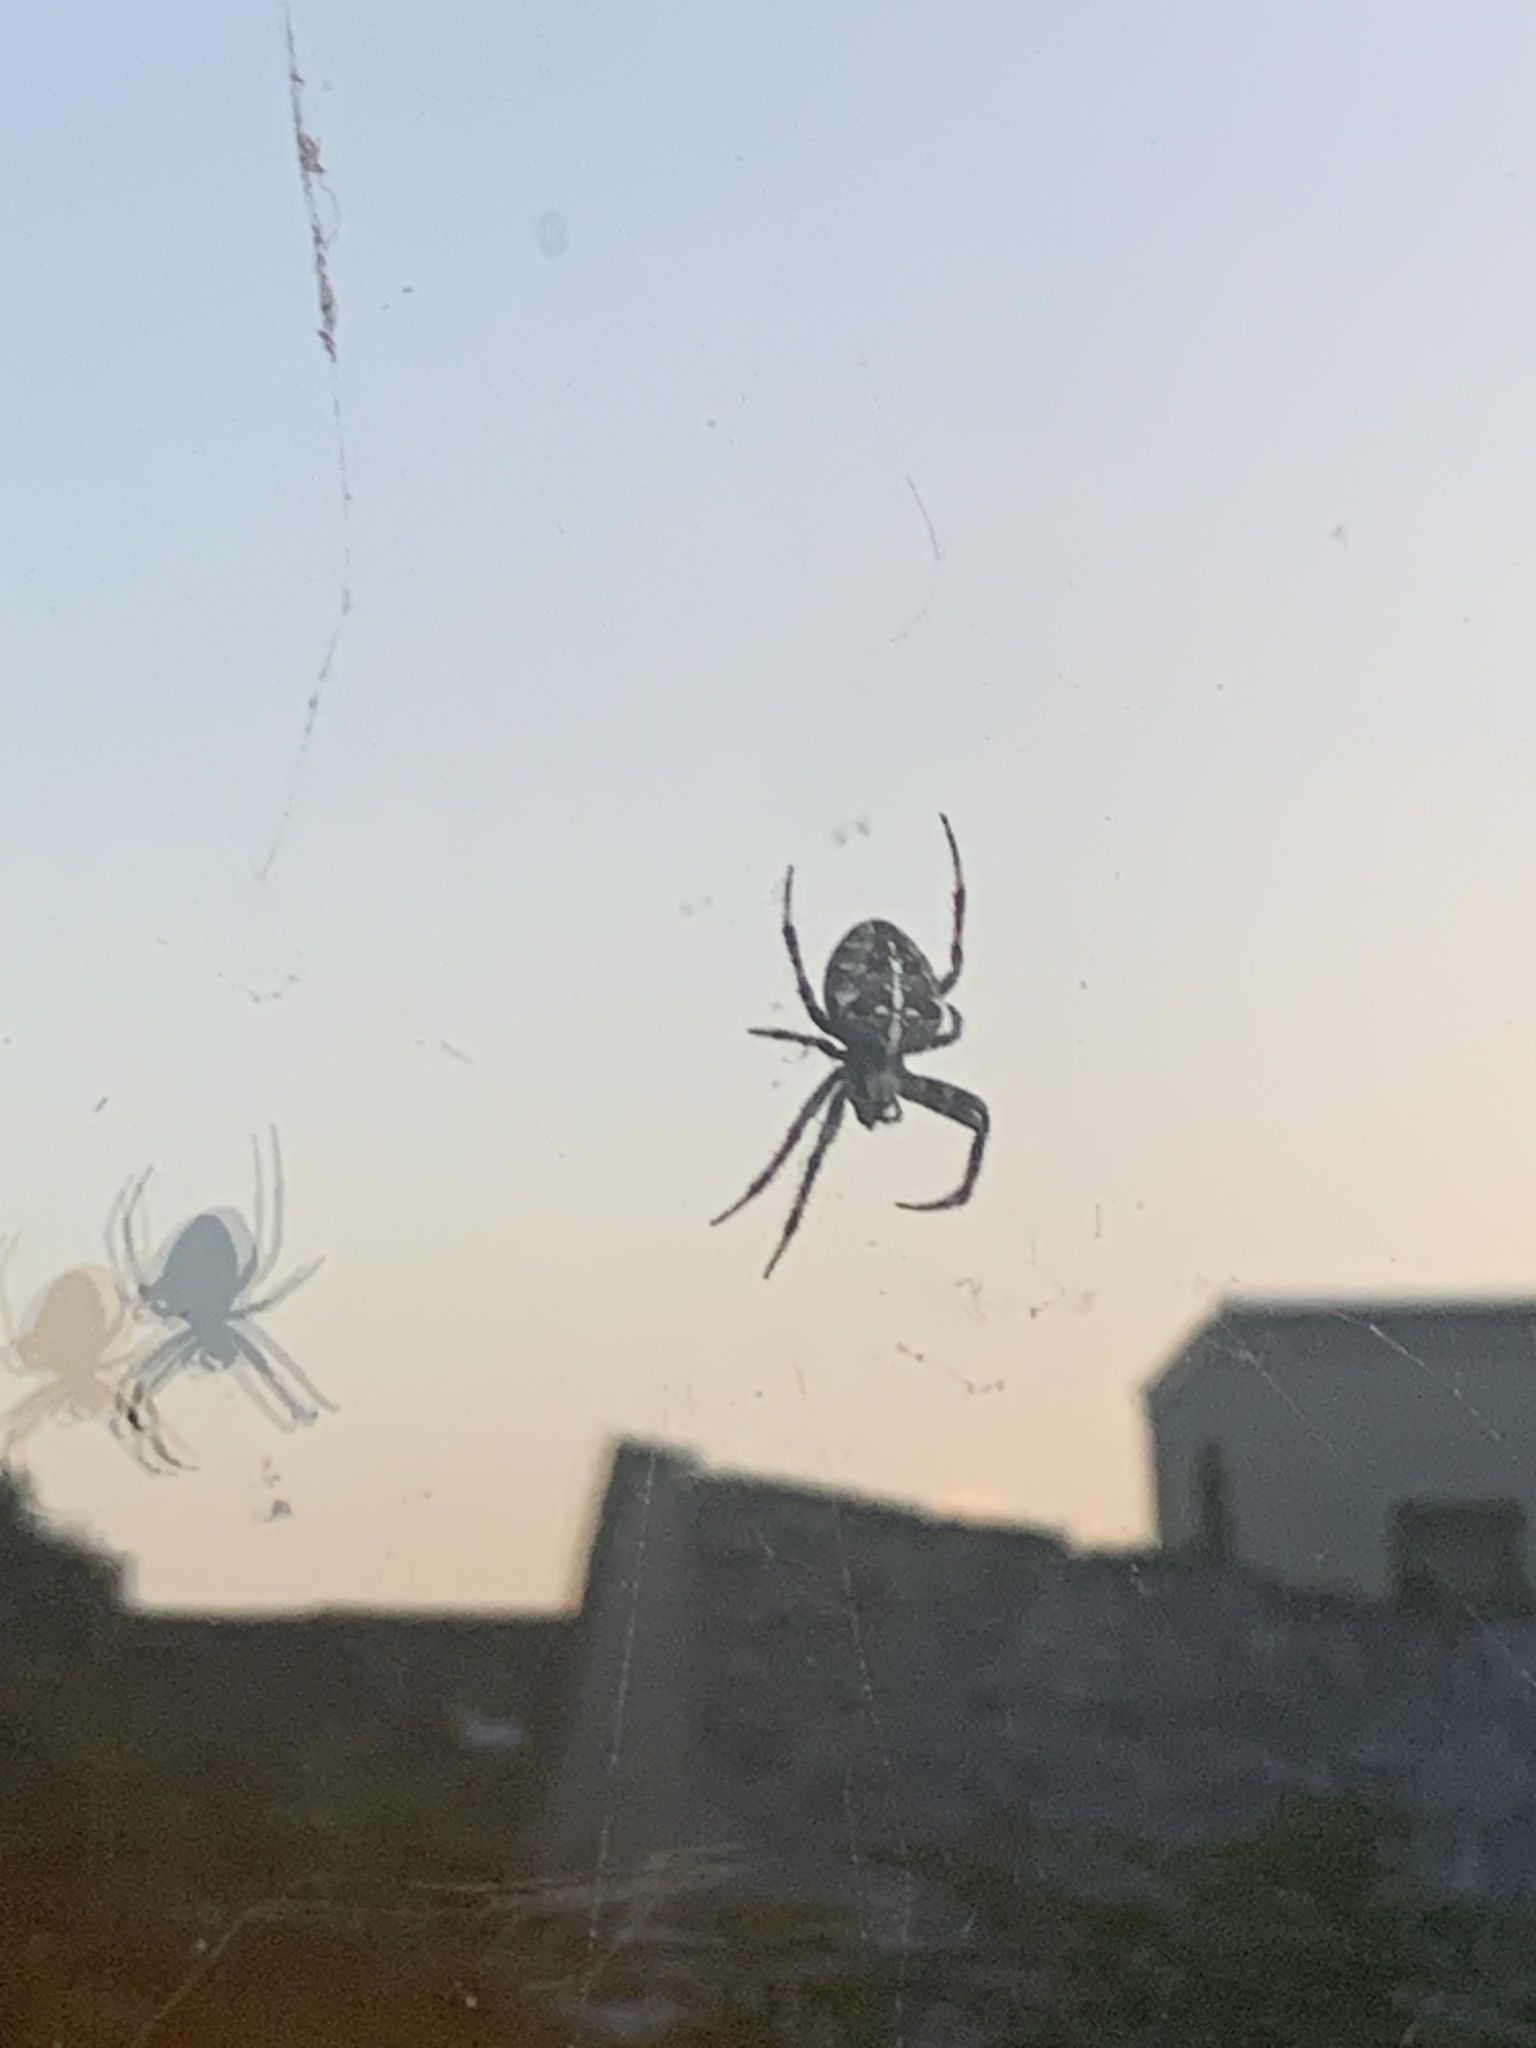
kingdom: Animalia
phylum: Arthropoda
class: Arachnida
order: Araneae
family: Araneidae
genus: Araneus
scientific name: Araneus diadematus
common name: Cross orbweaver
